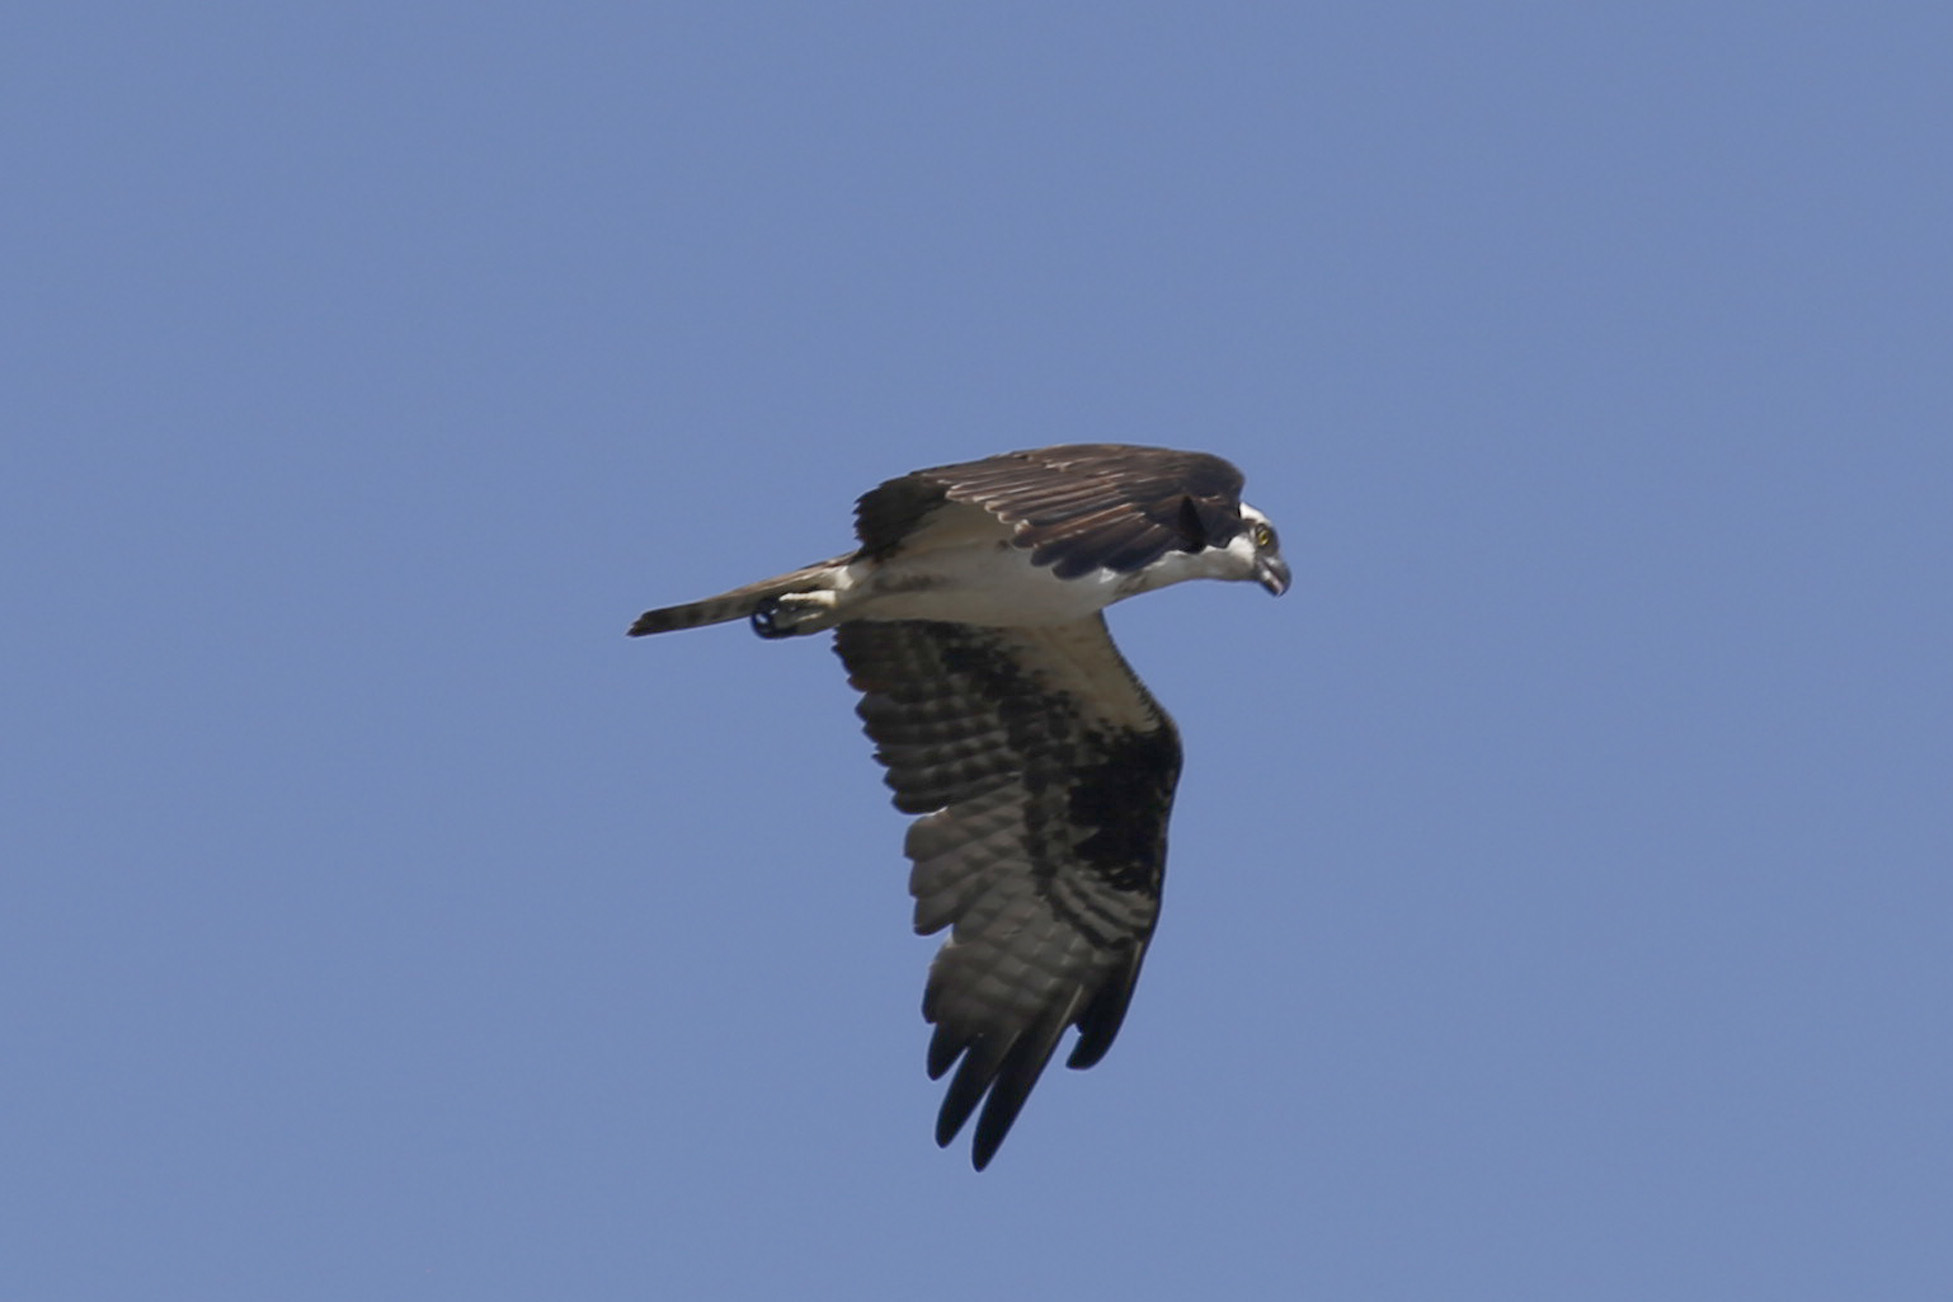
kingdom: Animalia
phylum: Chordata
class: Aves
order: Accipitriformes
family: Pandionidae
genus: Pandion
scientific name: Pandion haliaetus
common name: Osprey
